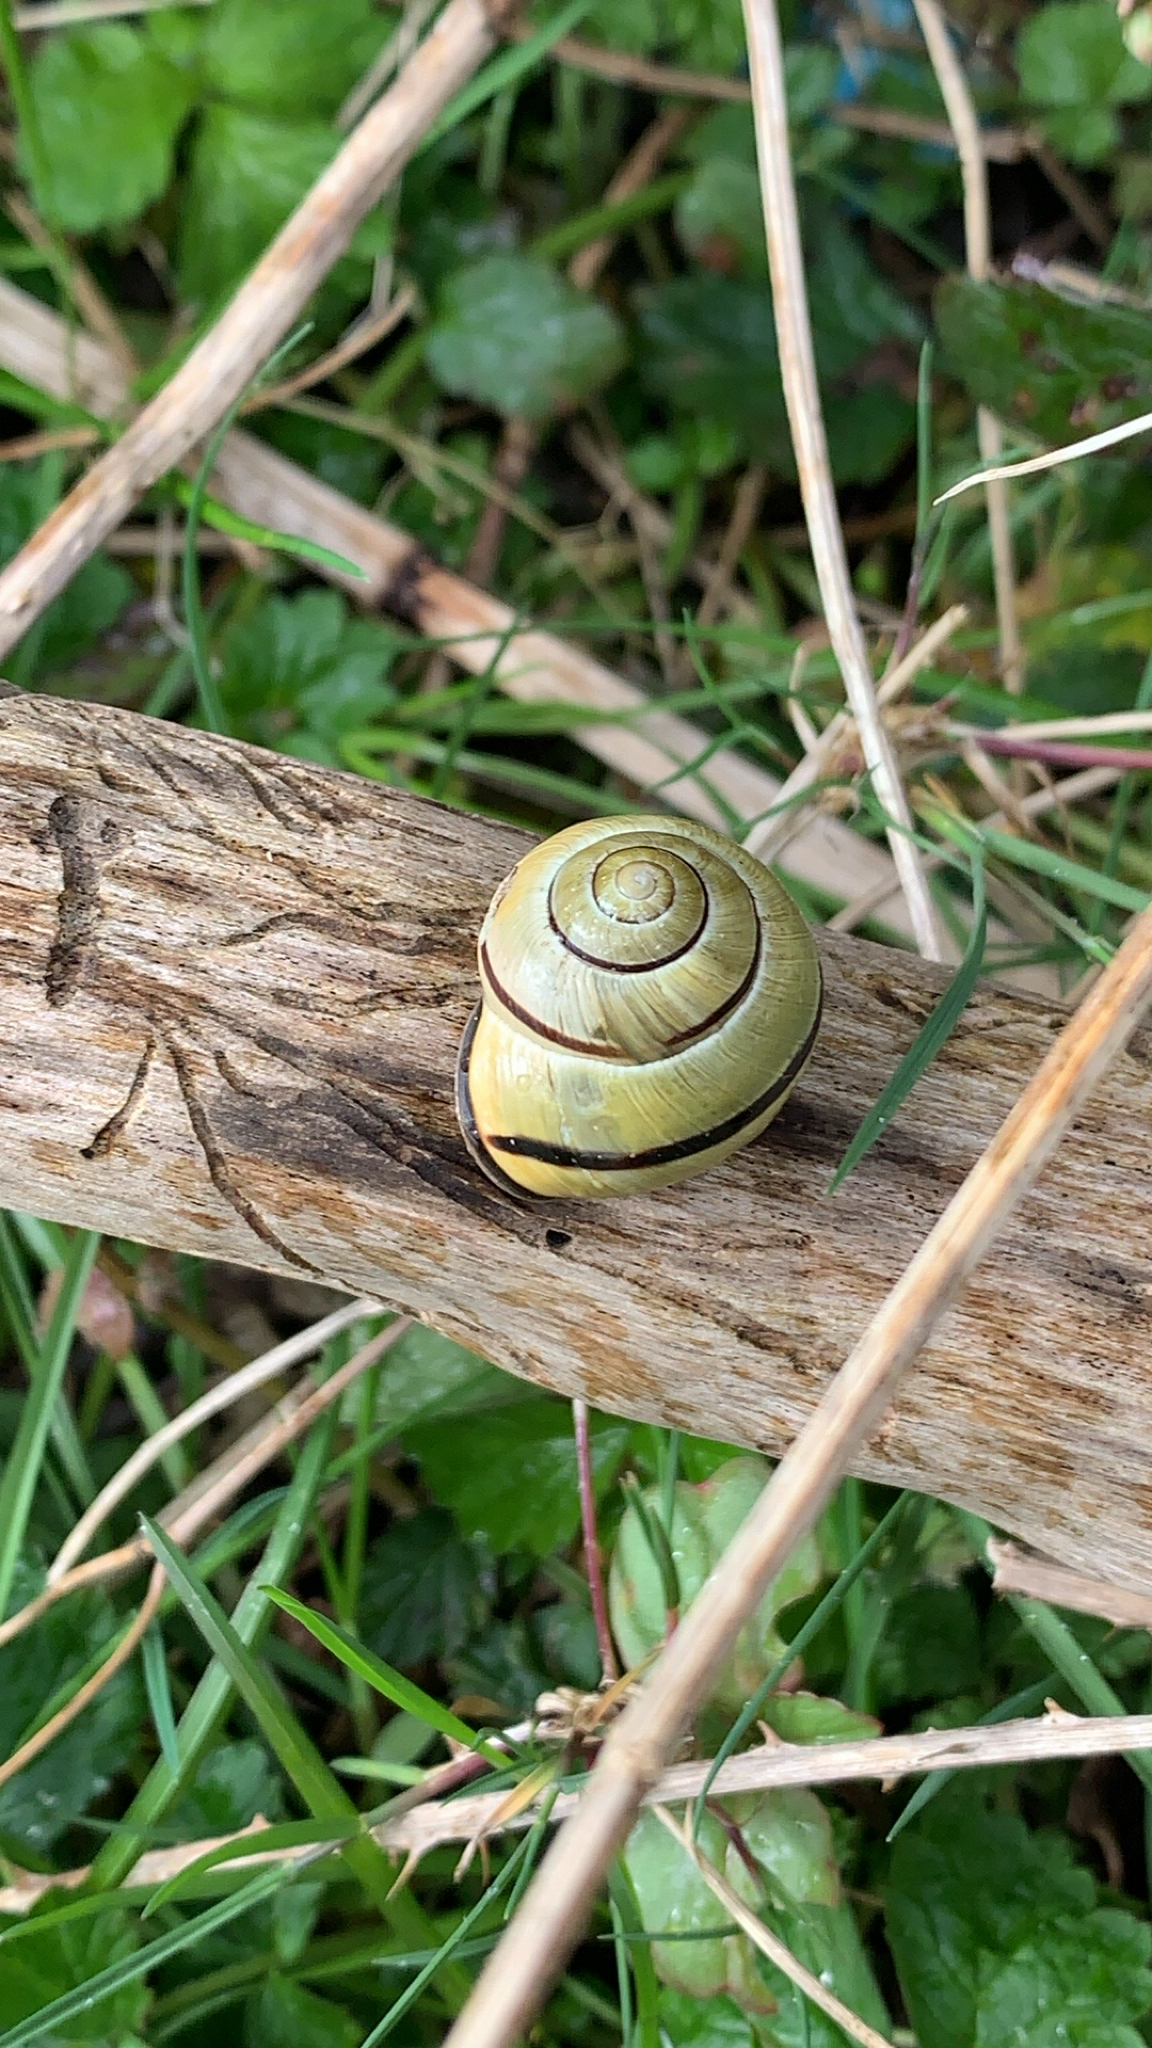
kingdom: Animalia
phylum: Mollusca
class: Gastropoda
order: Stylommatophora
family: Helicidae
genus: Cepaea
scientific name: Cepaea nemoralis
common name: Grovesnail
